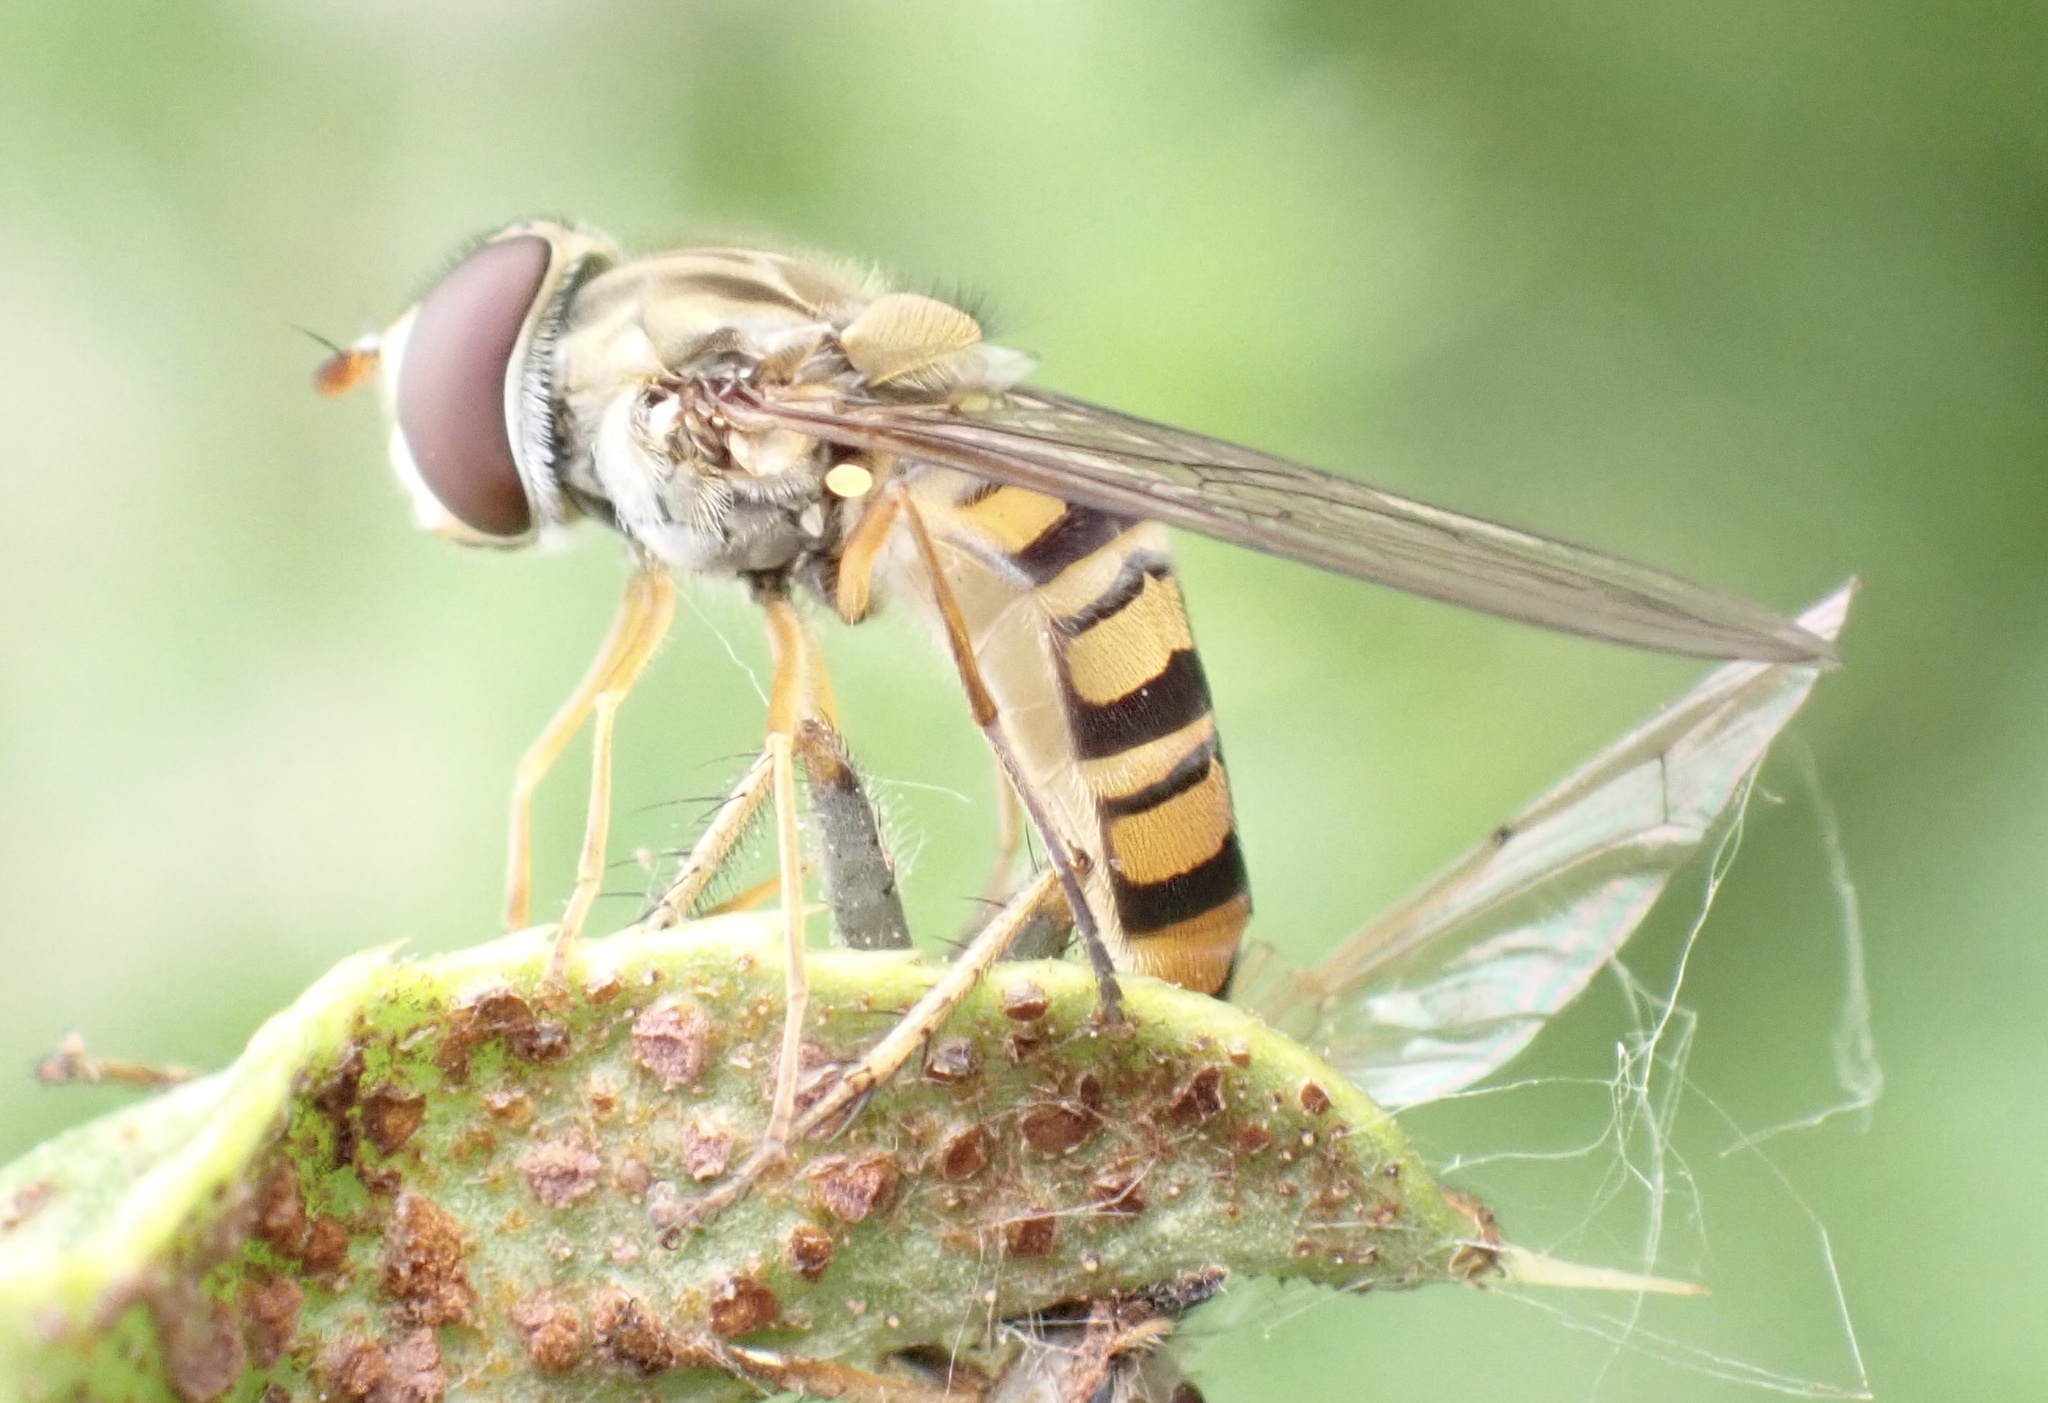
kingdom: Animalia
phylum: Arthropoda
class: Insecta
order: Diptera
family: Syrphidae
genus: Episyrphus
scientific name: Episyrphus balteatus
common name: Marmalade hoverfly
